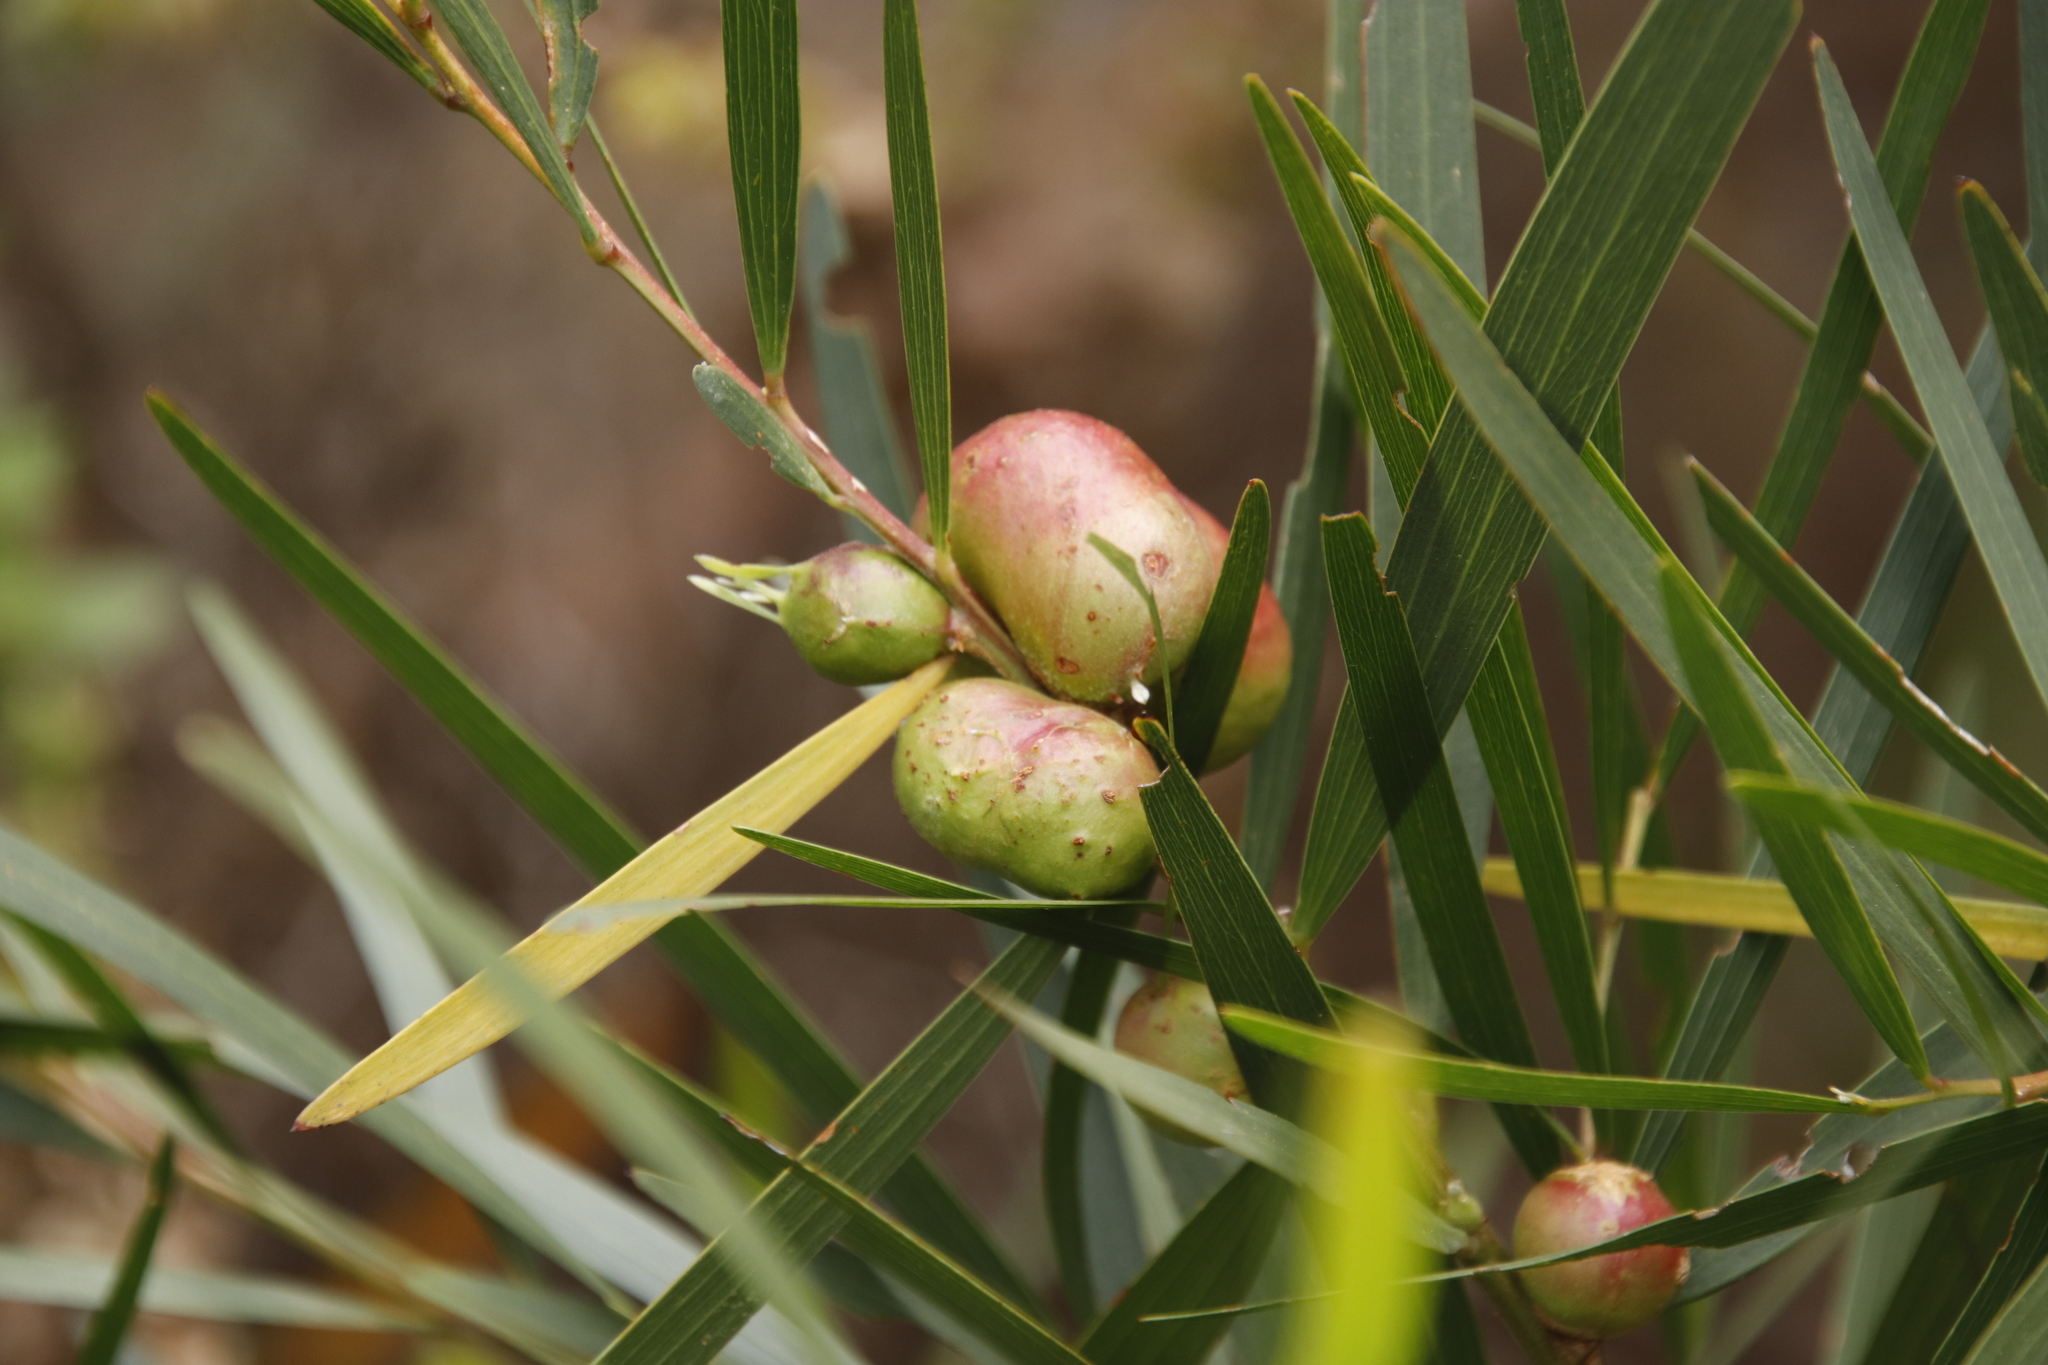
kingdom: Plantae
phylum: Tracheophyta
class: Magnoliopsida
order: Fabales
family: Fabaceae
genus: Acacia
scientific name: Acacia longifolia
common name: Sydney golden wattle
